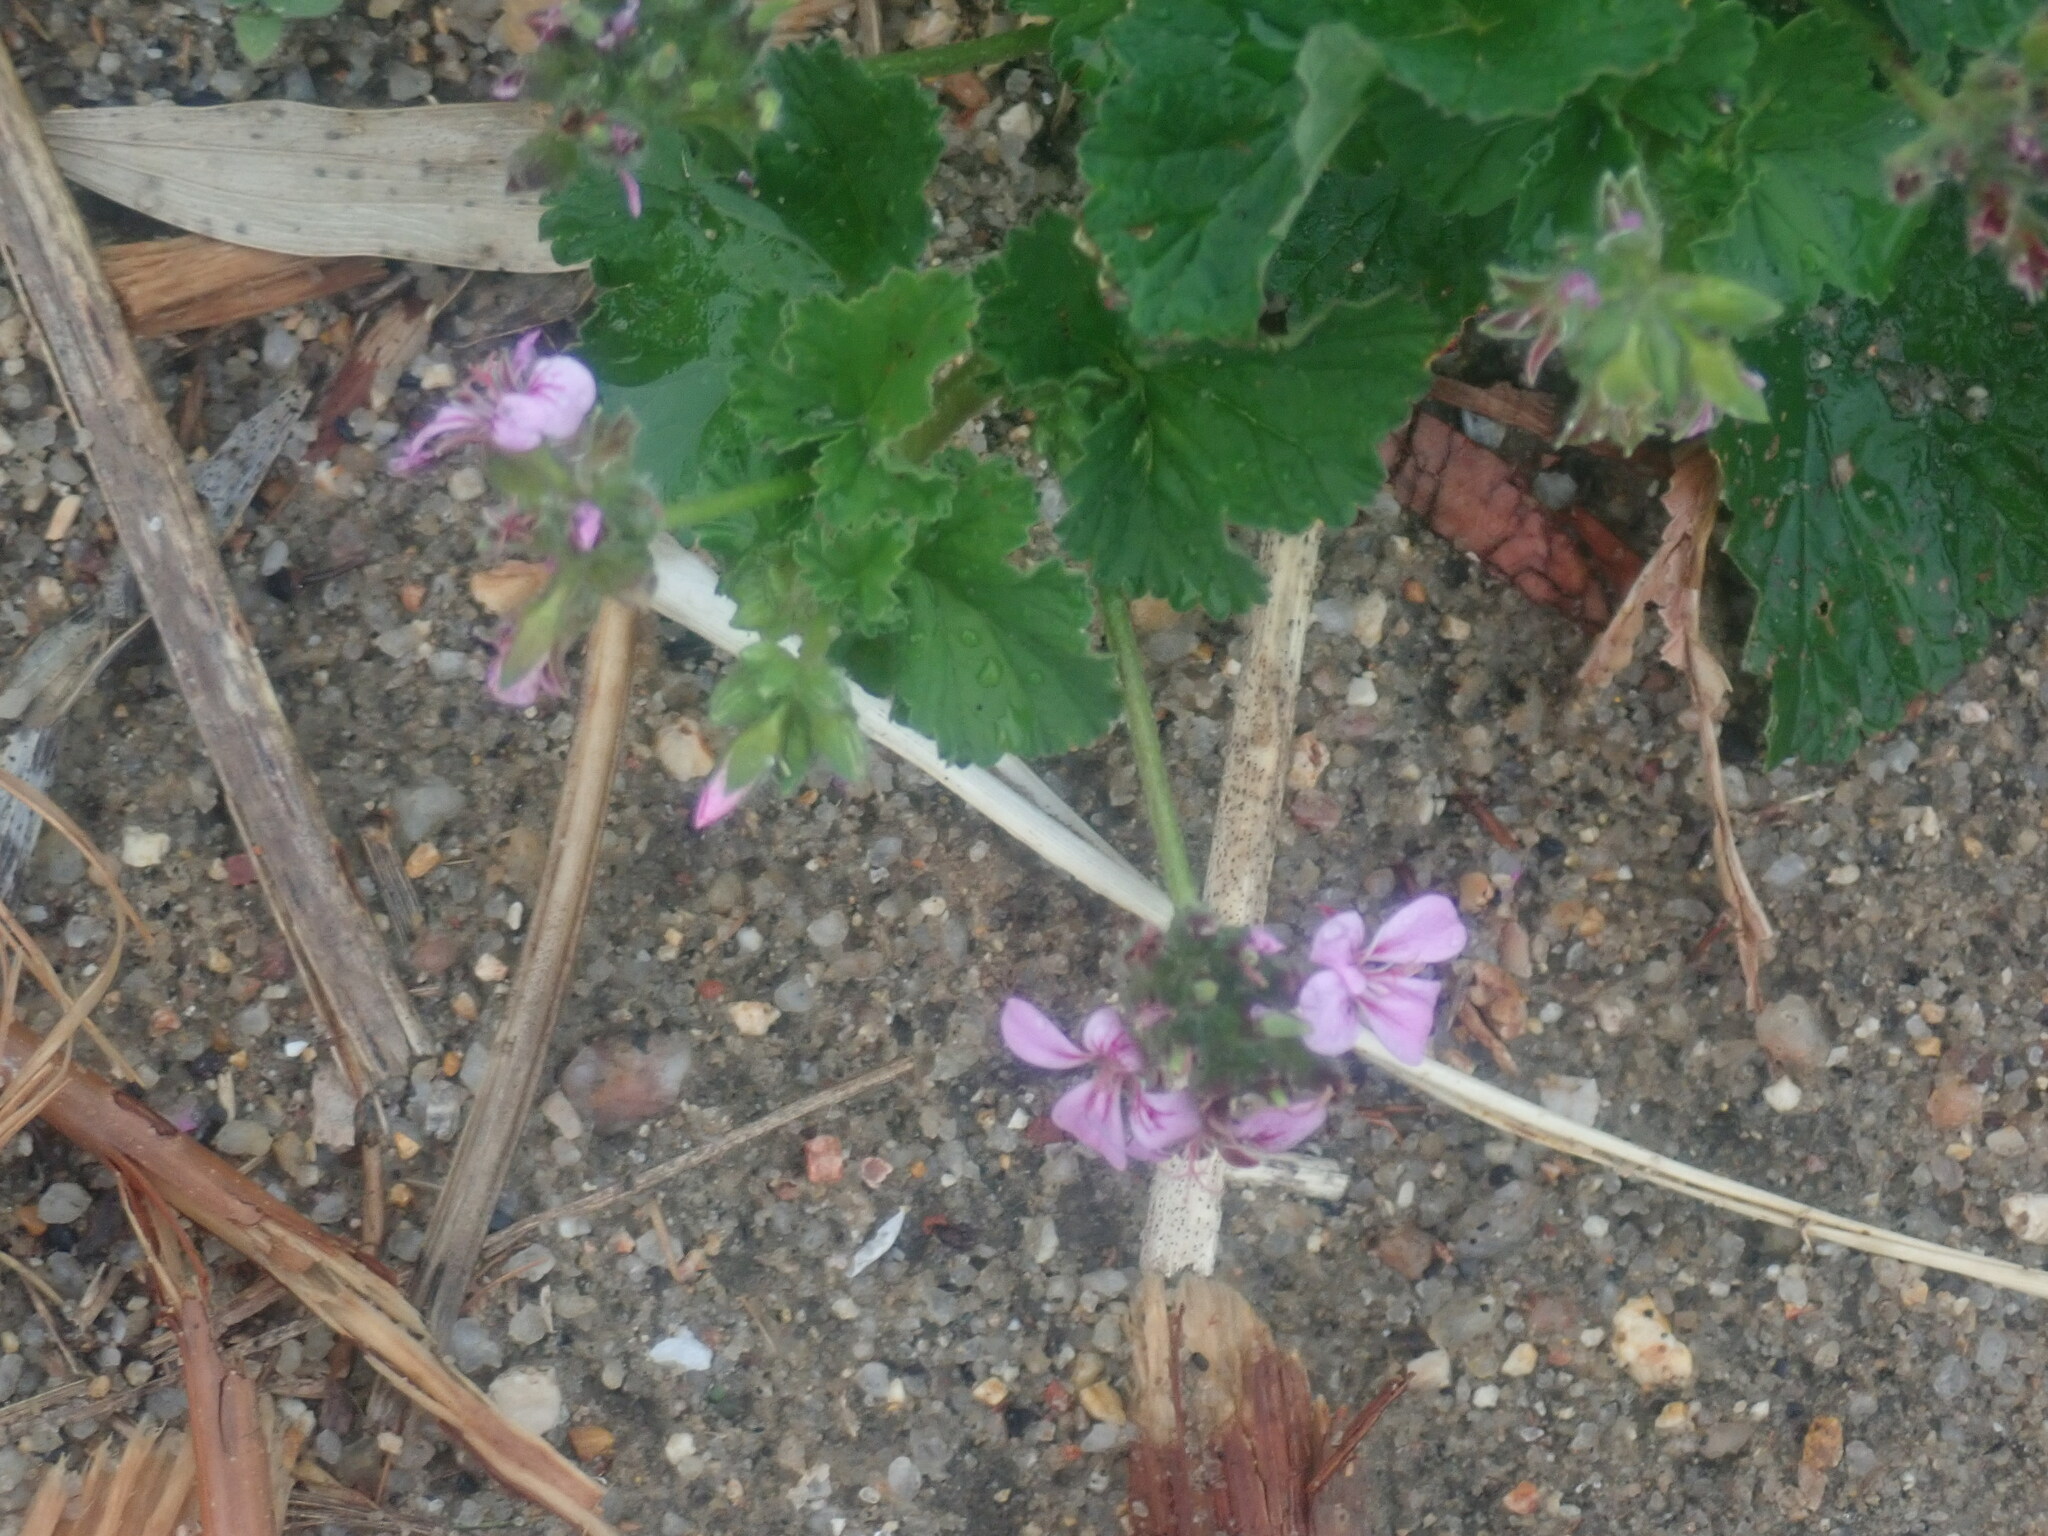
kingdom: Plantae
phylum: Tracheophyta
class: Magnoliopsida
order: Geraniales
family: Geraniaceae
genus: Pelargonium
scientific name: Pelargonium australe
